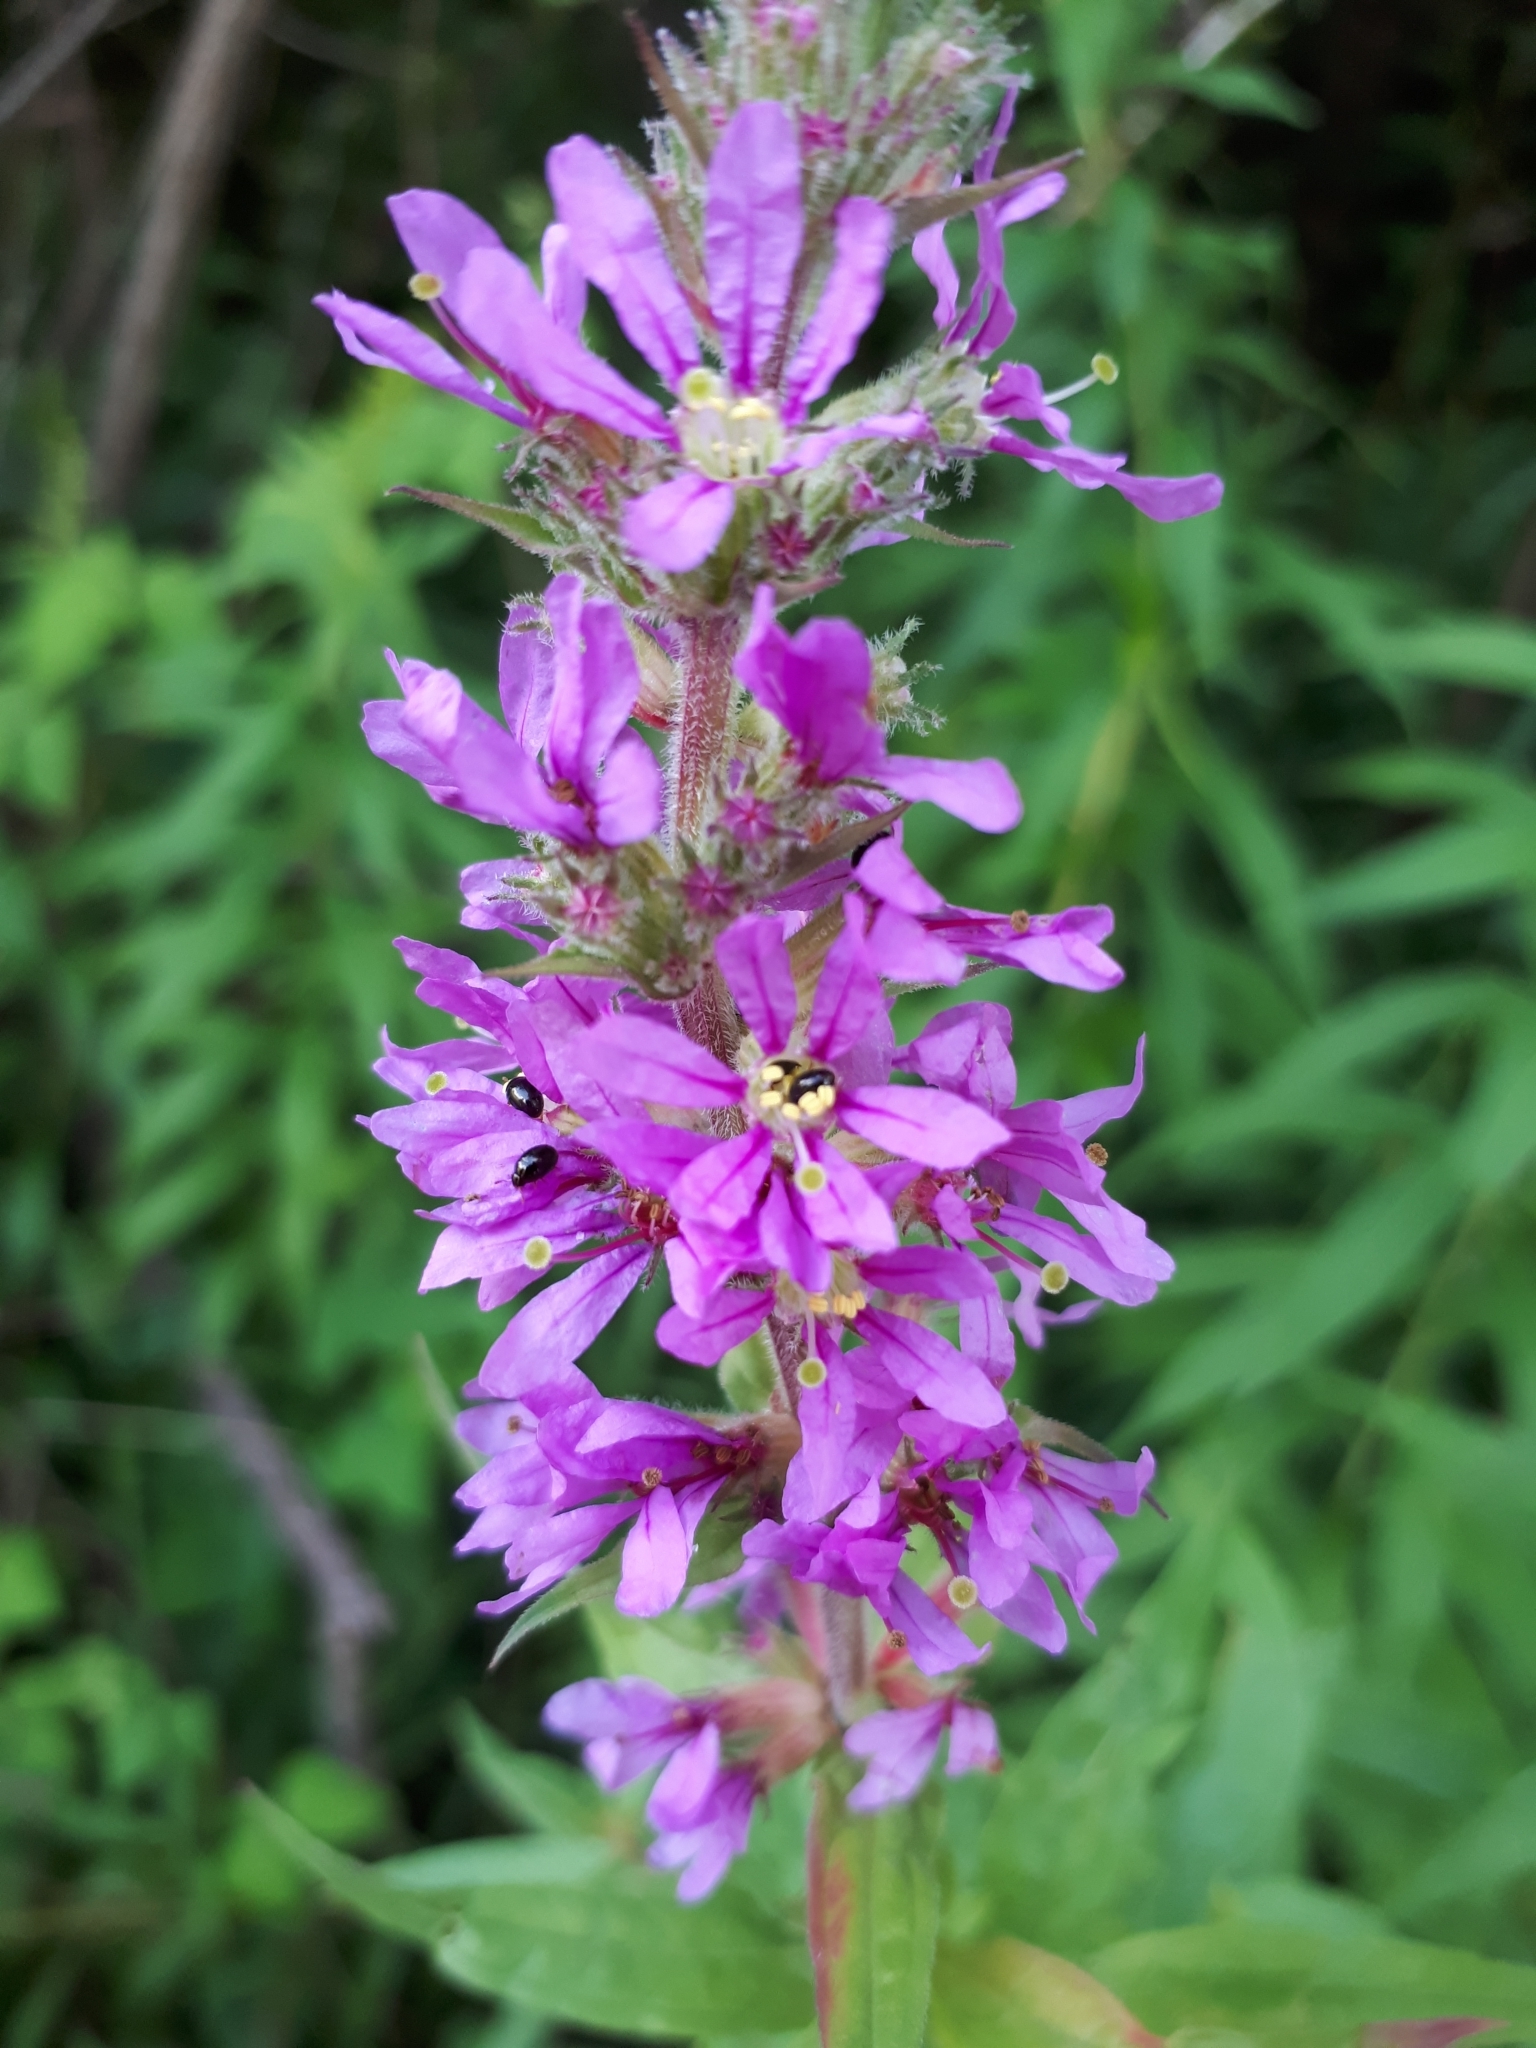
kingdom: Plantae
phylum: Tracheophyta
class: Magnoliopsida
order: Myrtales
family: Lythraceae
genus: Lythrum
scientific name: Lythrum salicaria
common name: Purple loosestrife
